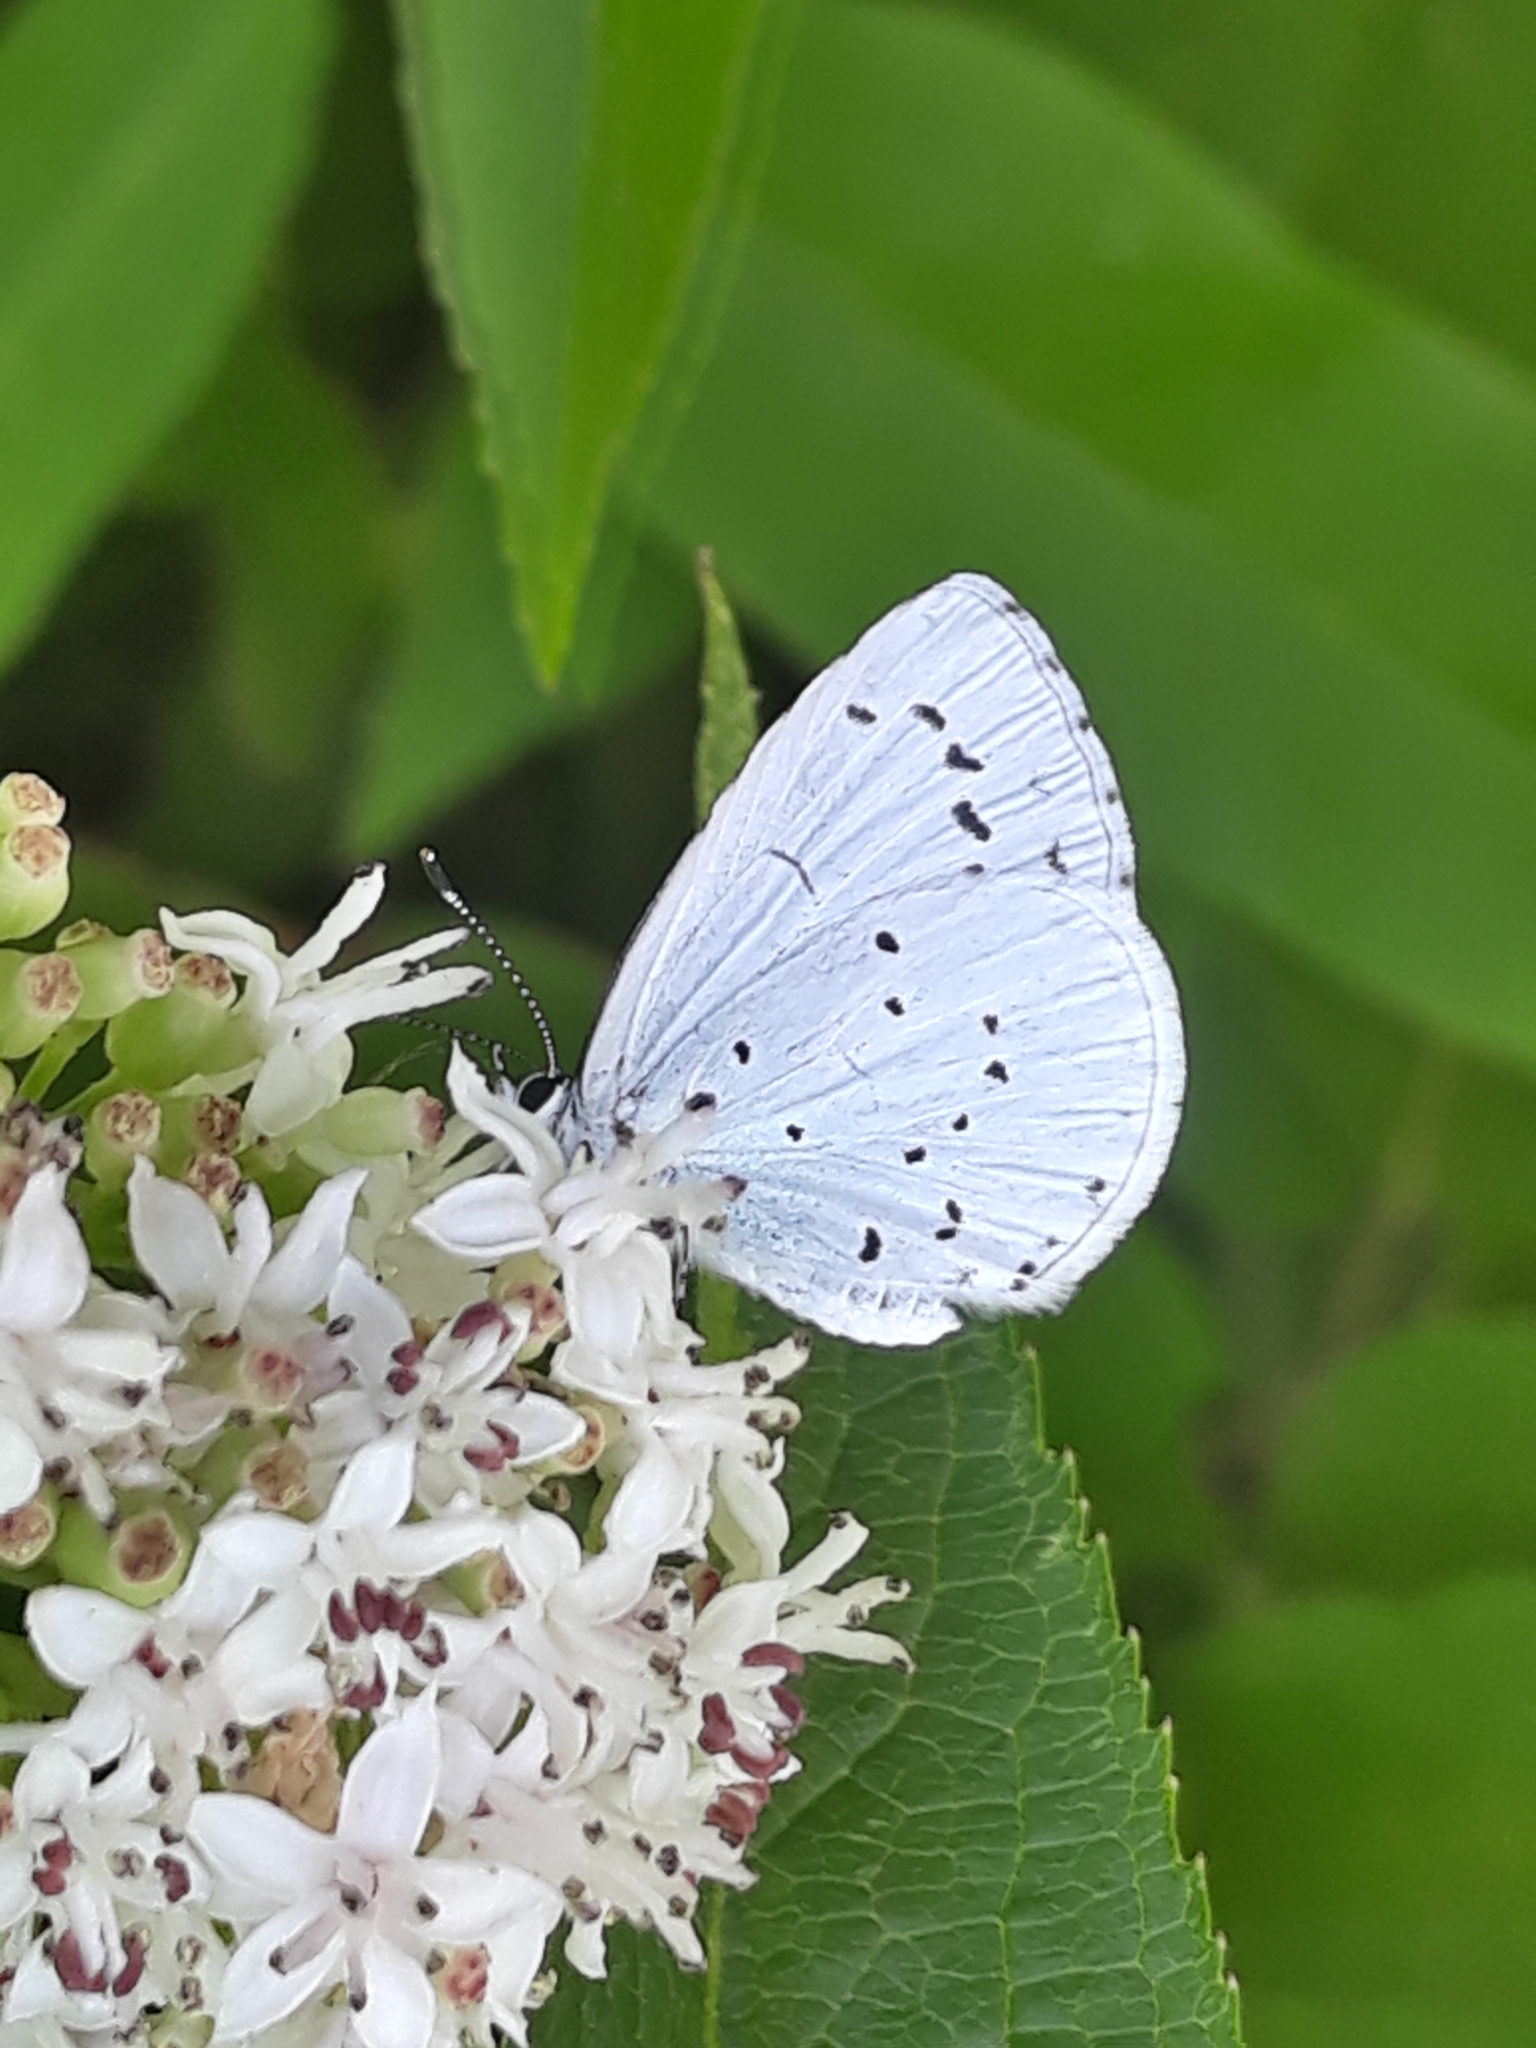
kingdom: Animalia
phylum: Arthropoda
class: Insecta
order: Lepidoptera
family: Lycaenidae
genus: Celastrina
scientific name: Celastrina argiolus
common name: Holly blue
